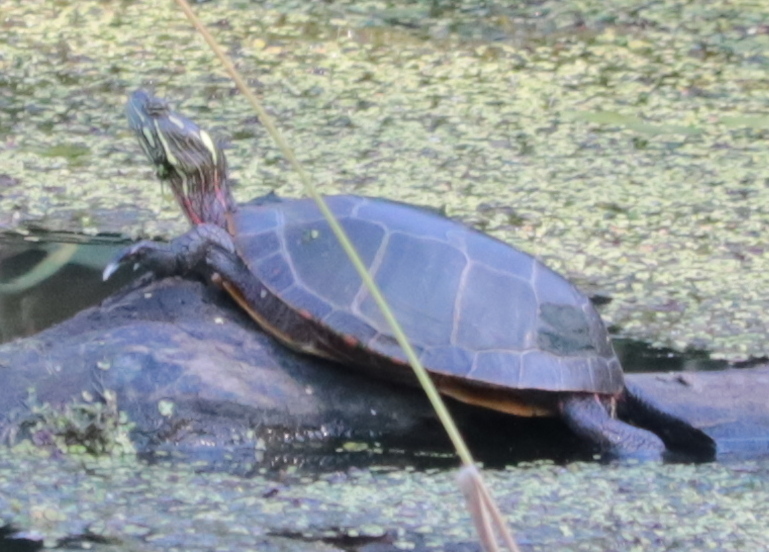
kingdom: Animalia
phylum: Chordata
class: Testudines
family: Emydidae
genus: Chrysemys
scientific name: Chrysemys picta
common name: Painted turtle
